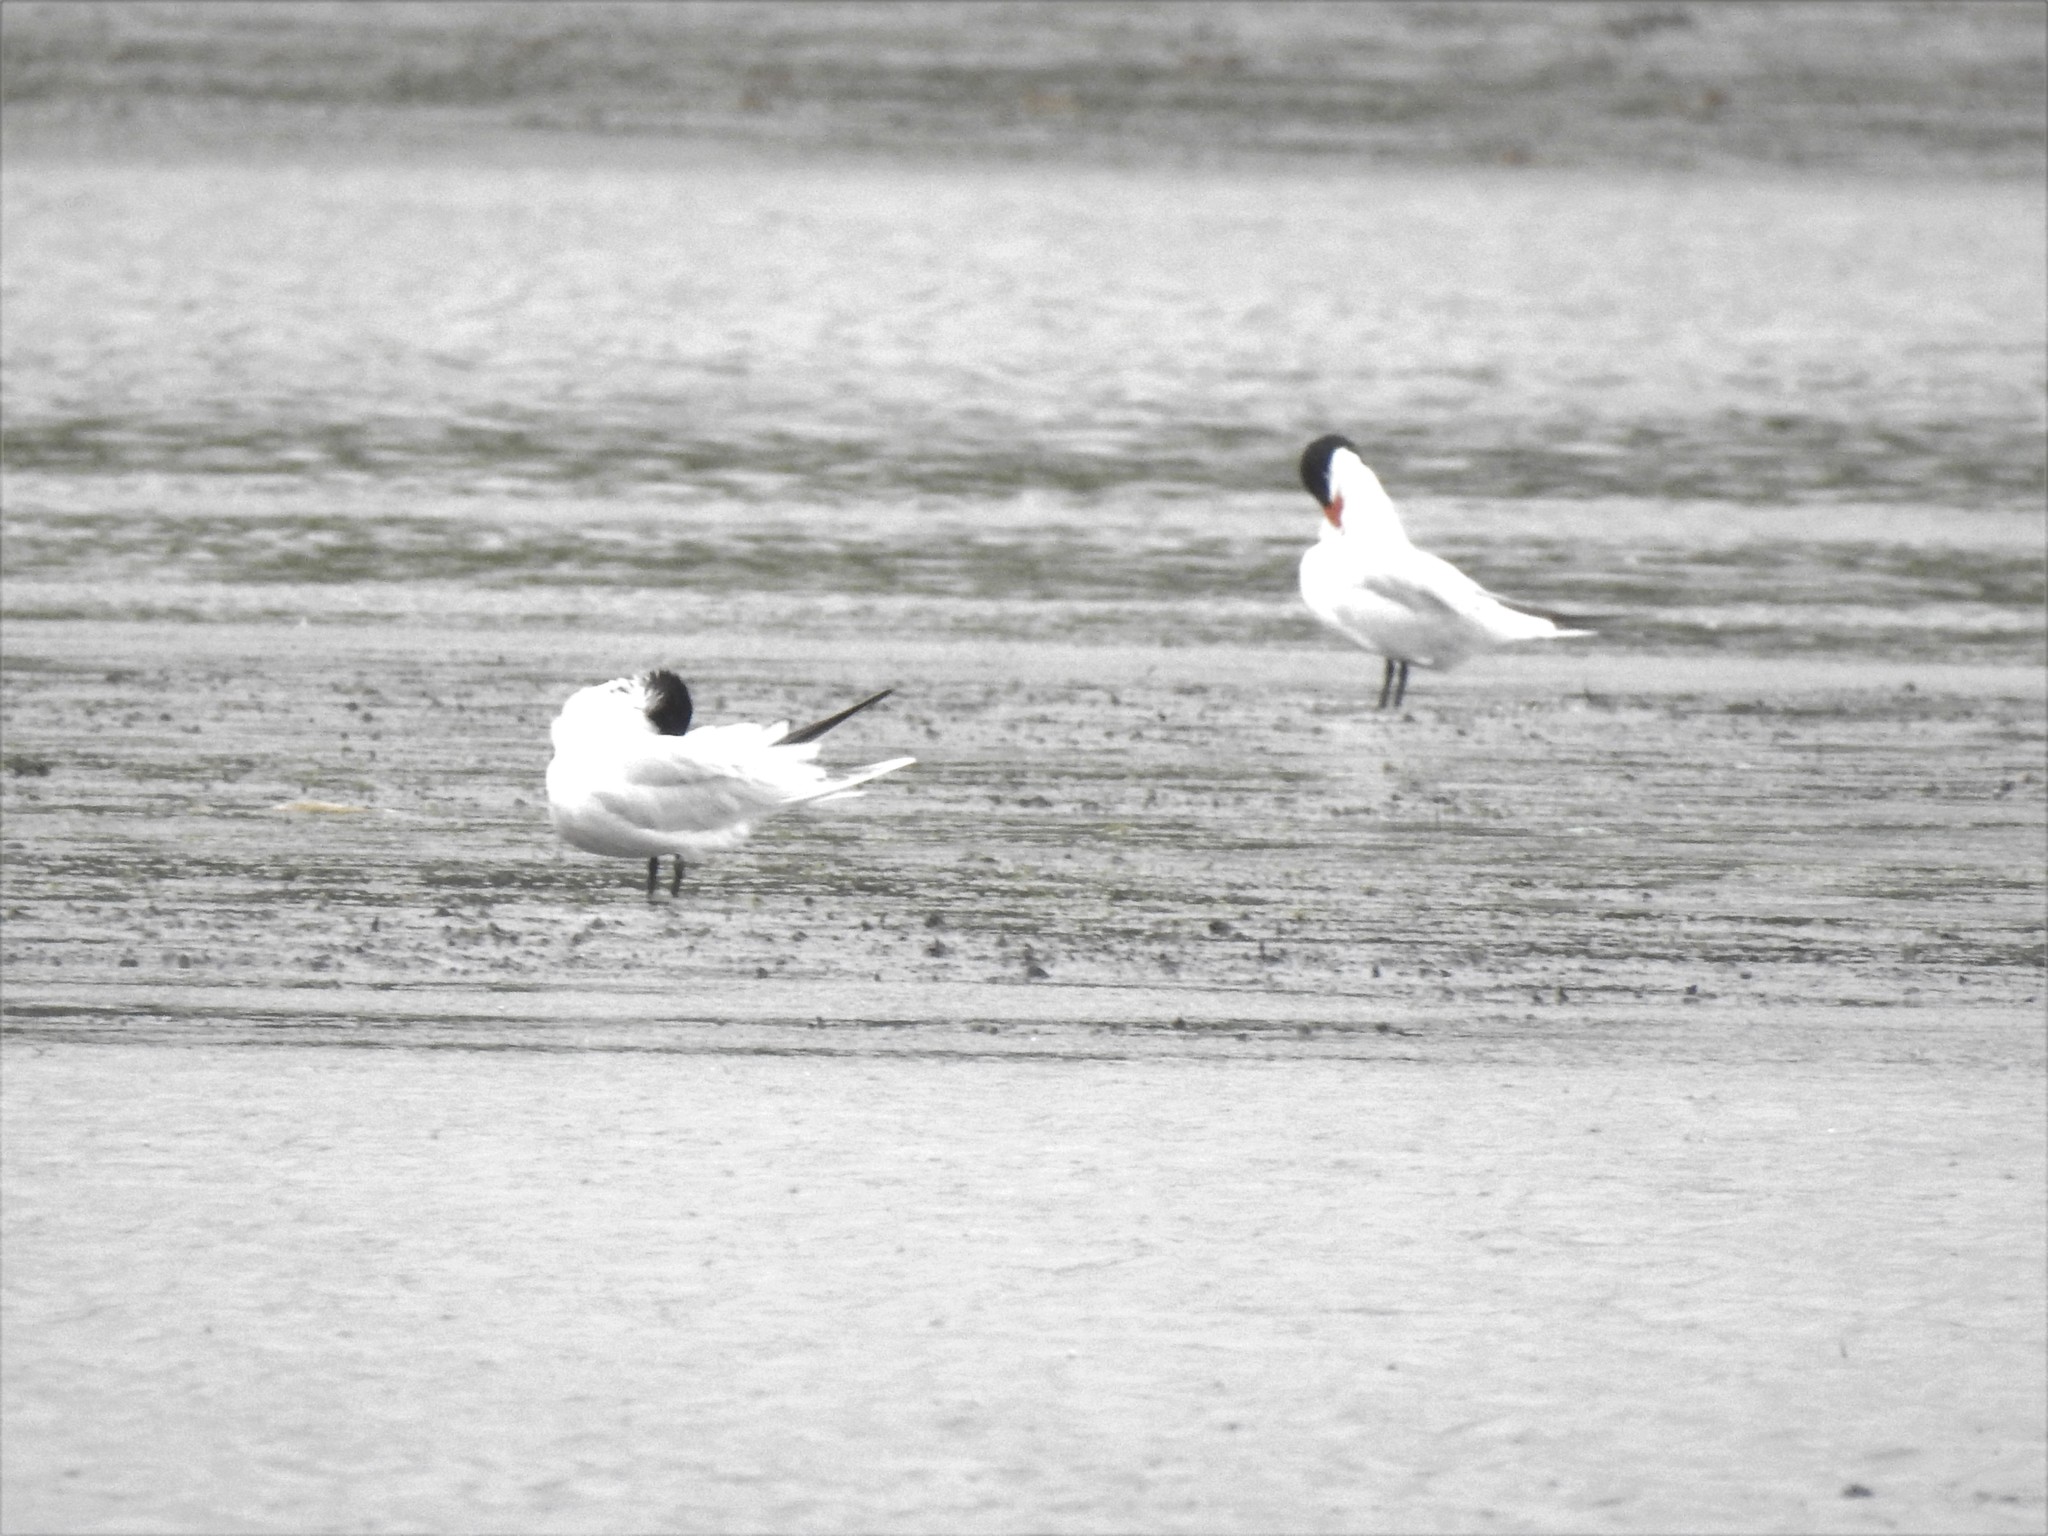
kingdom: Animalia
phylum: Chordata
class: Aves
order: Charadriiformes
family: Laridae
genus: Hydroprogne
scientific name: Hydroprogne caspia
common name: Caspian tern
